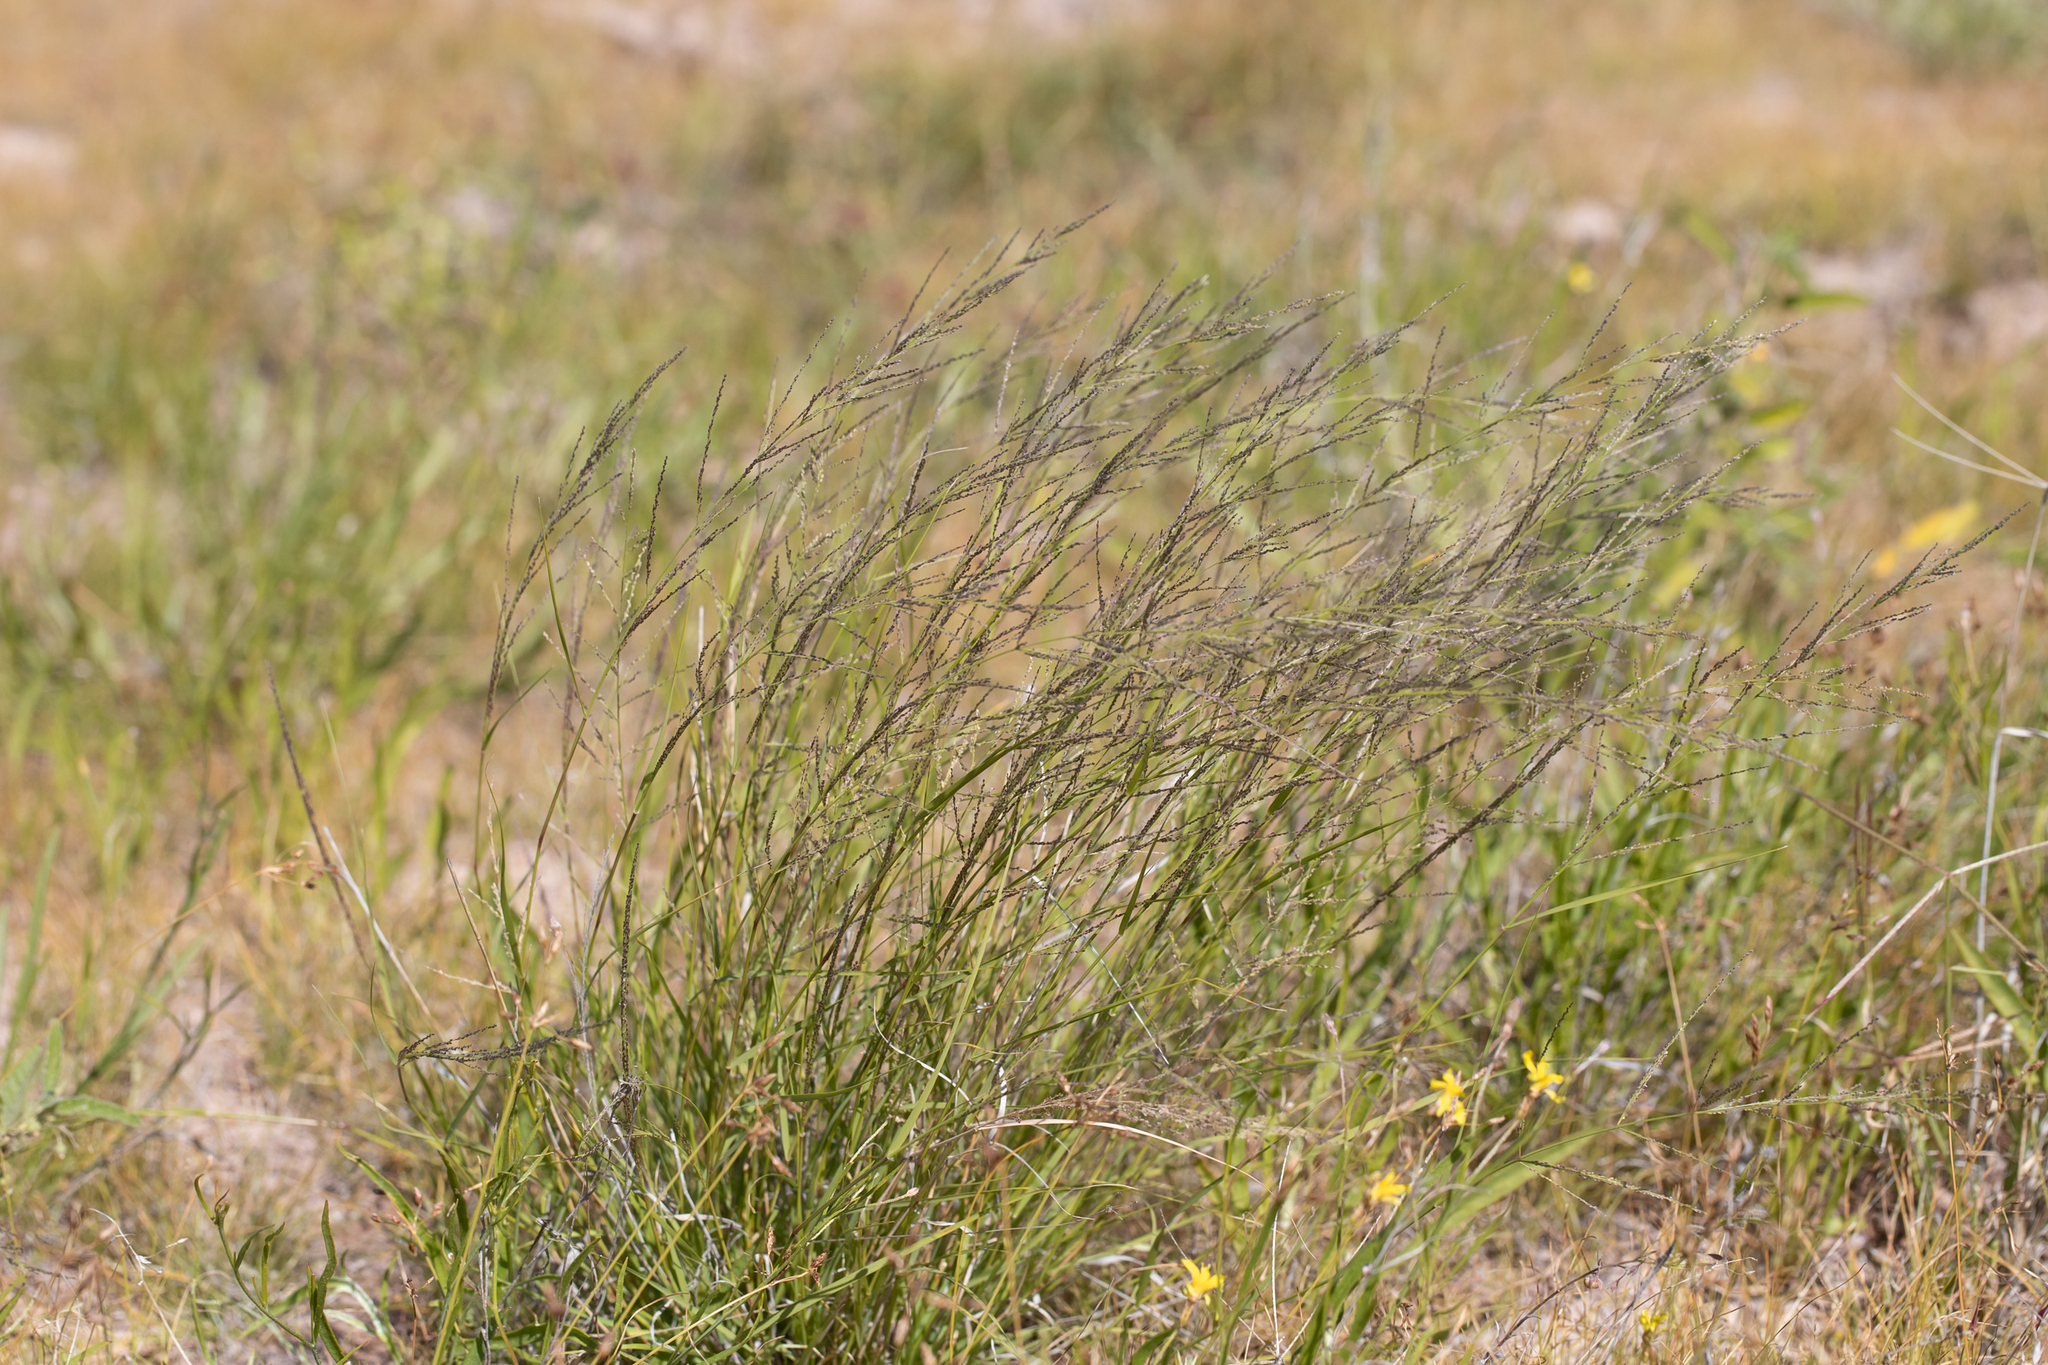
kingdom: Plantae
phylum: Tracheophyta
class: Liliopsida
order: Poales
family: Poaceae
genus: Eragrostis
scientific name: Eragrostis kennedyae
